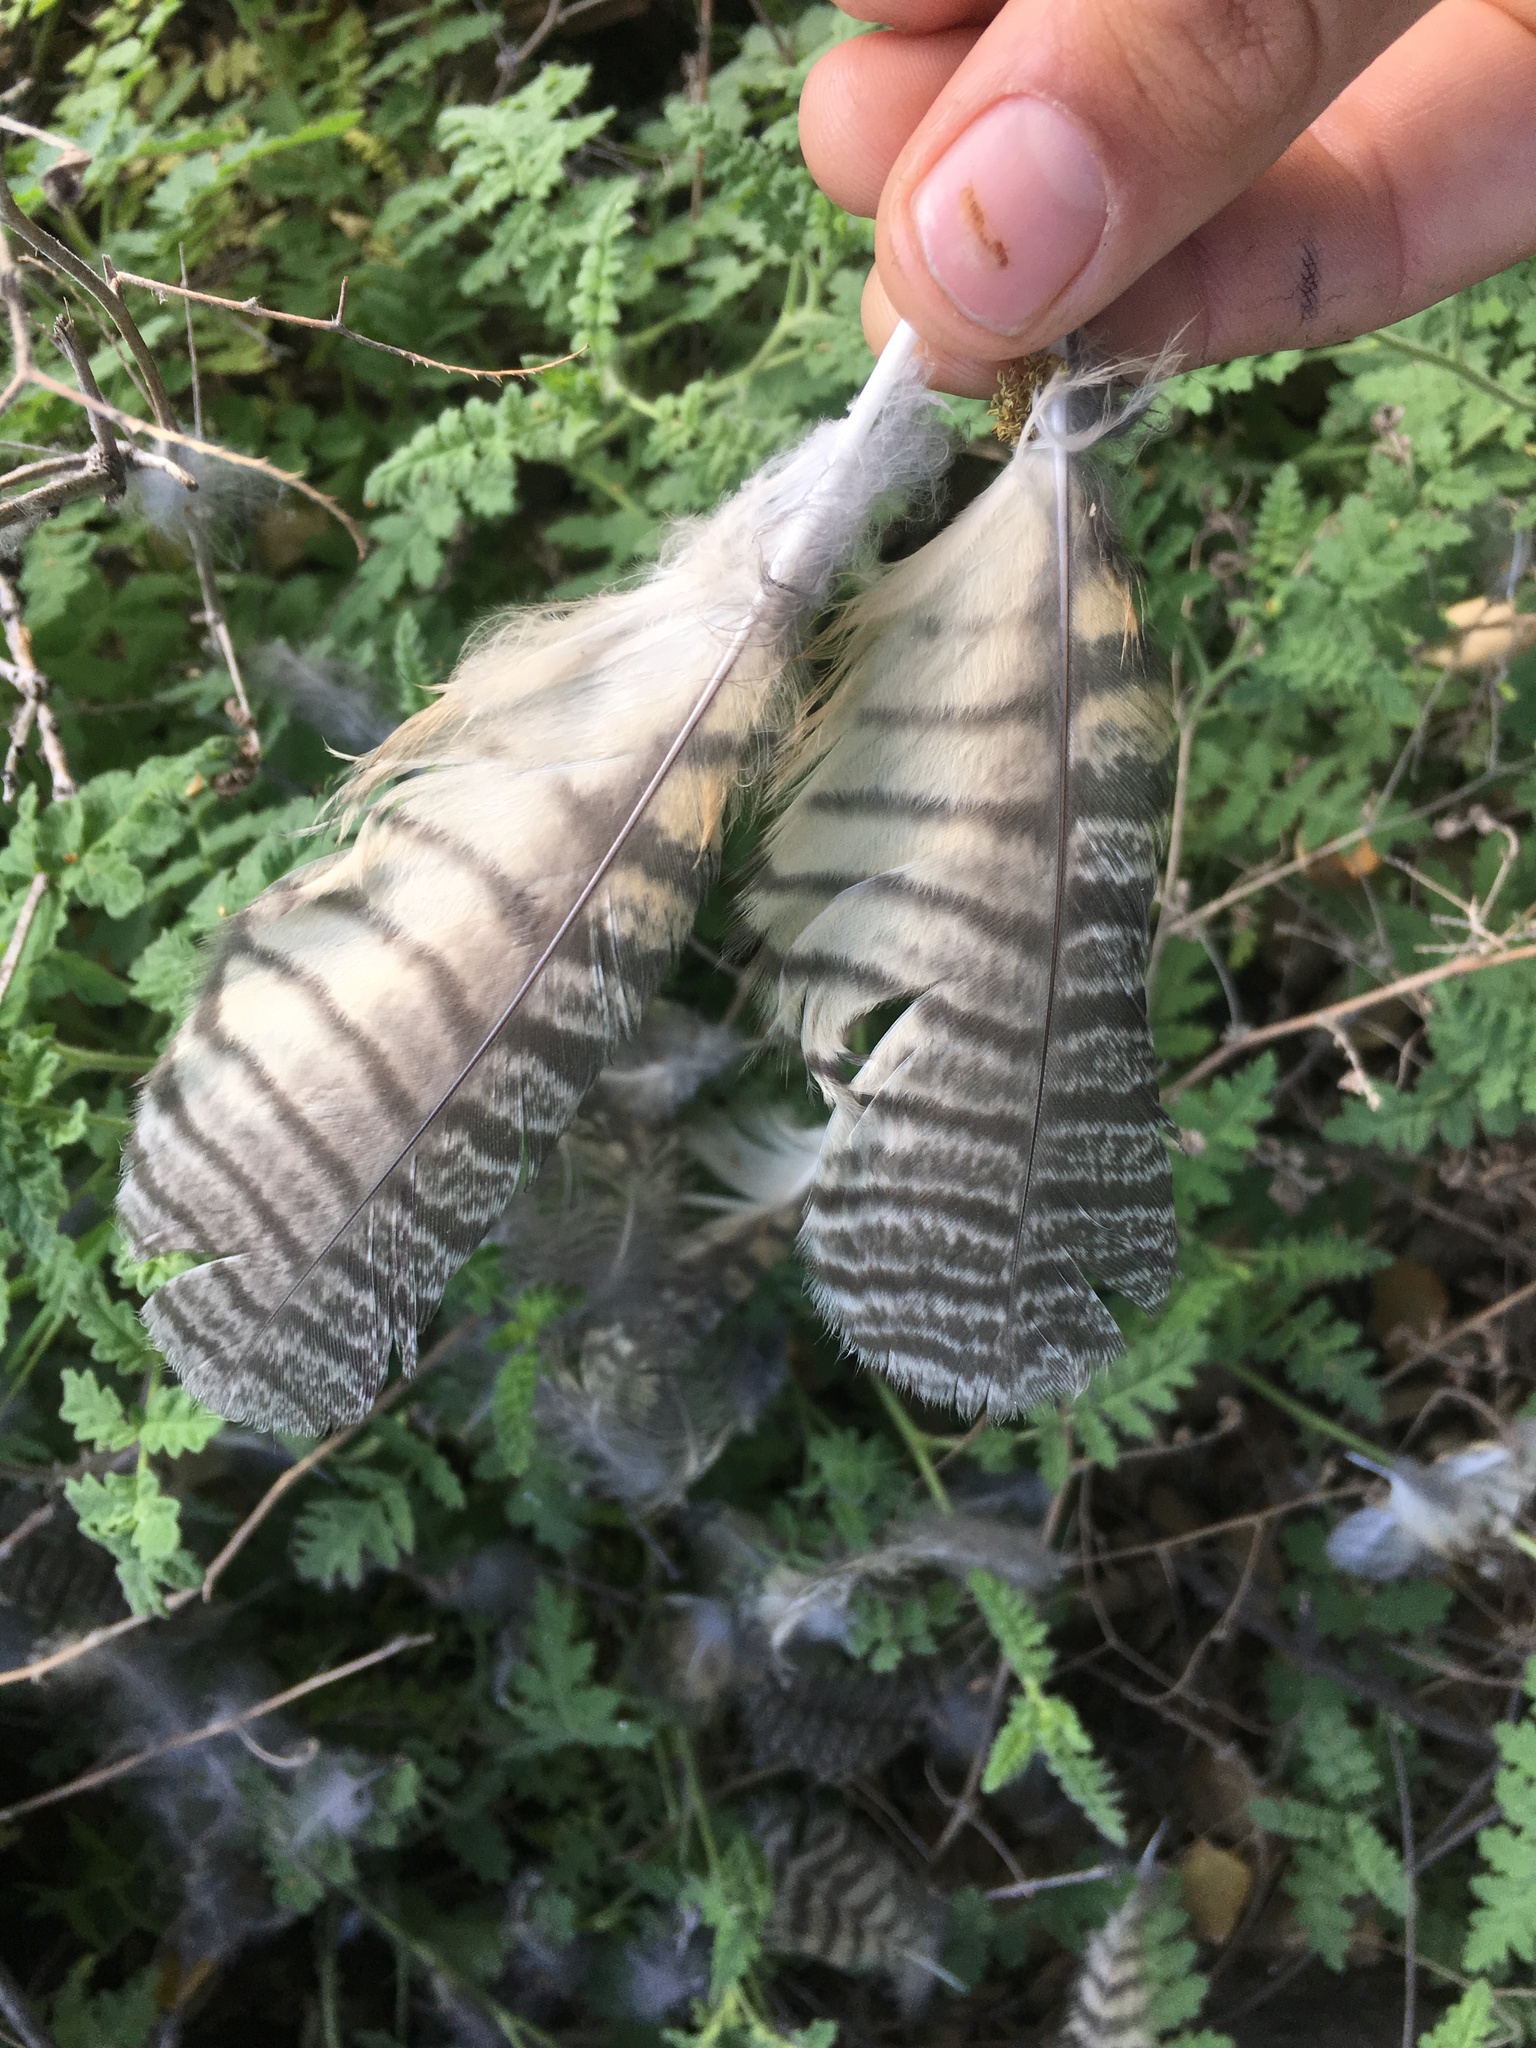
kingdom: Animalia
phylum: Chordata
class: Aves
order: Strigiformes
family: Strigidae
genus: Asio
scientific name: Asio otus
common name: Long-eared owl
